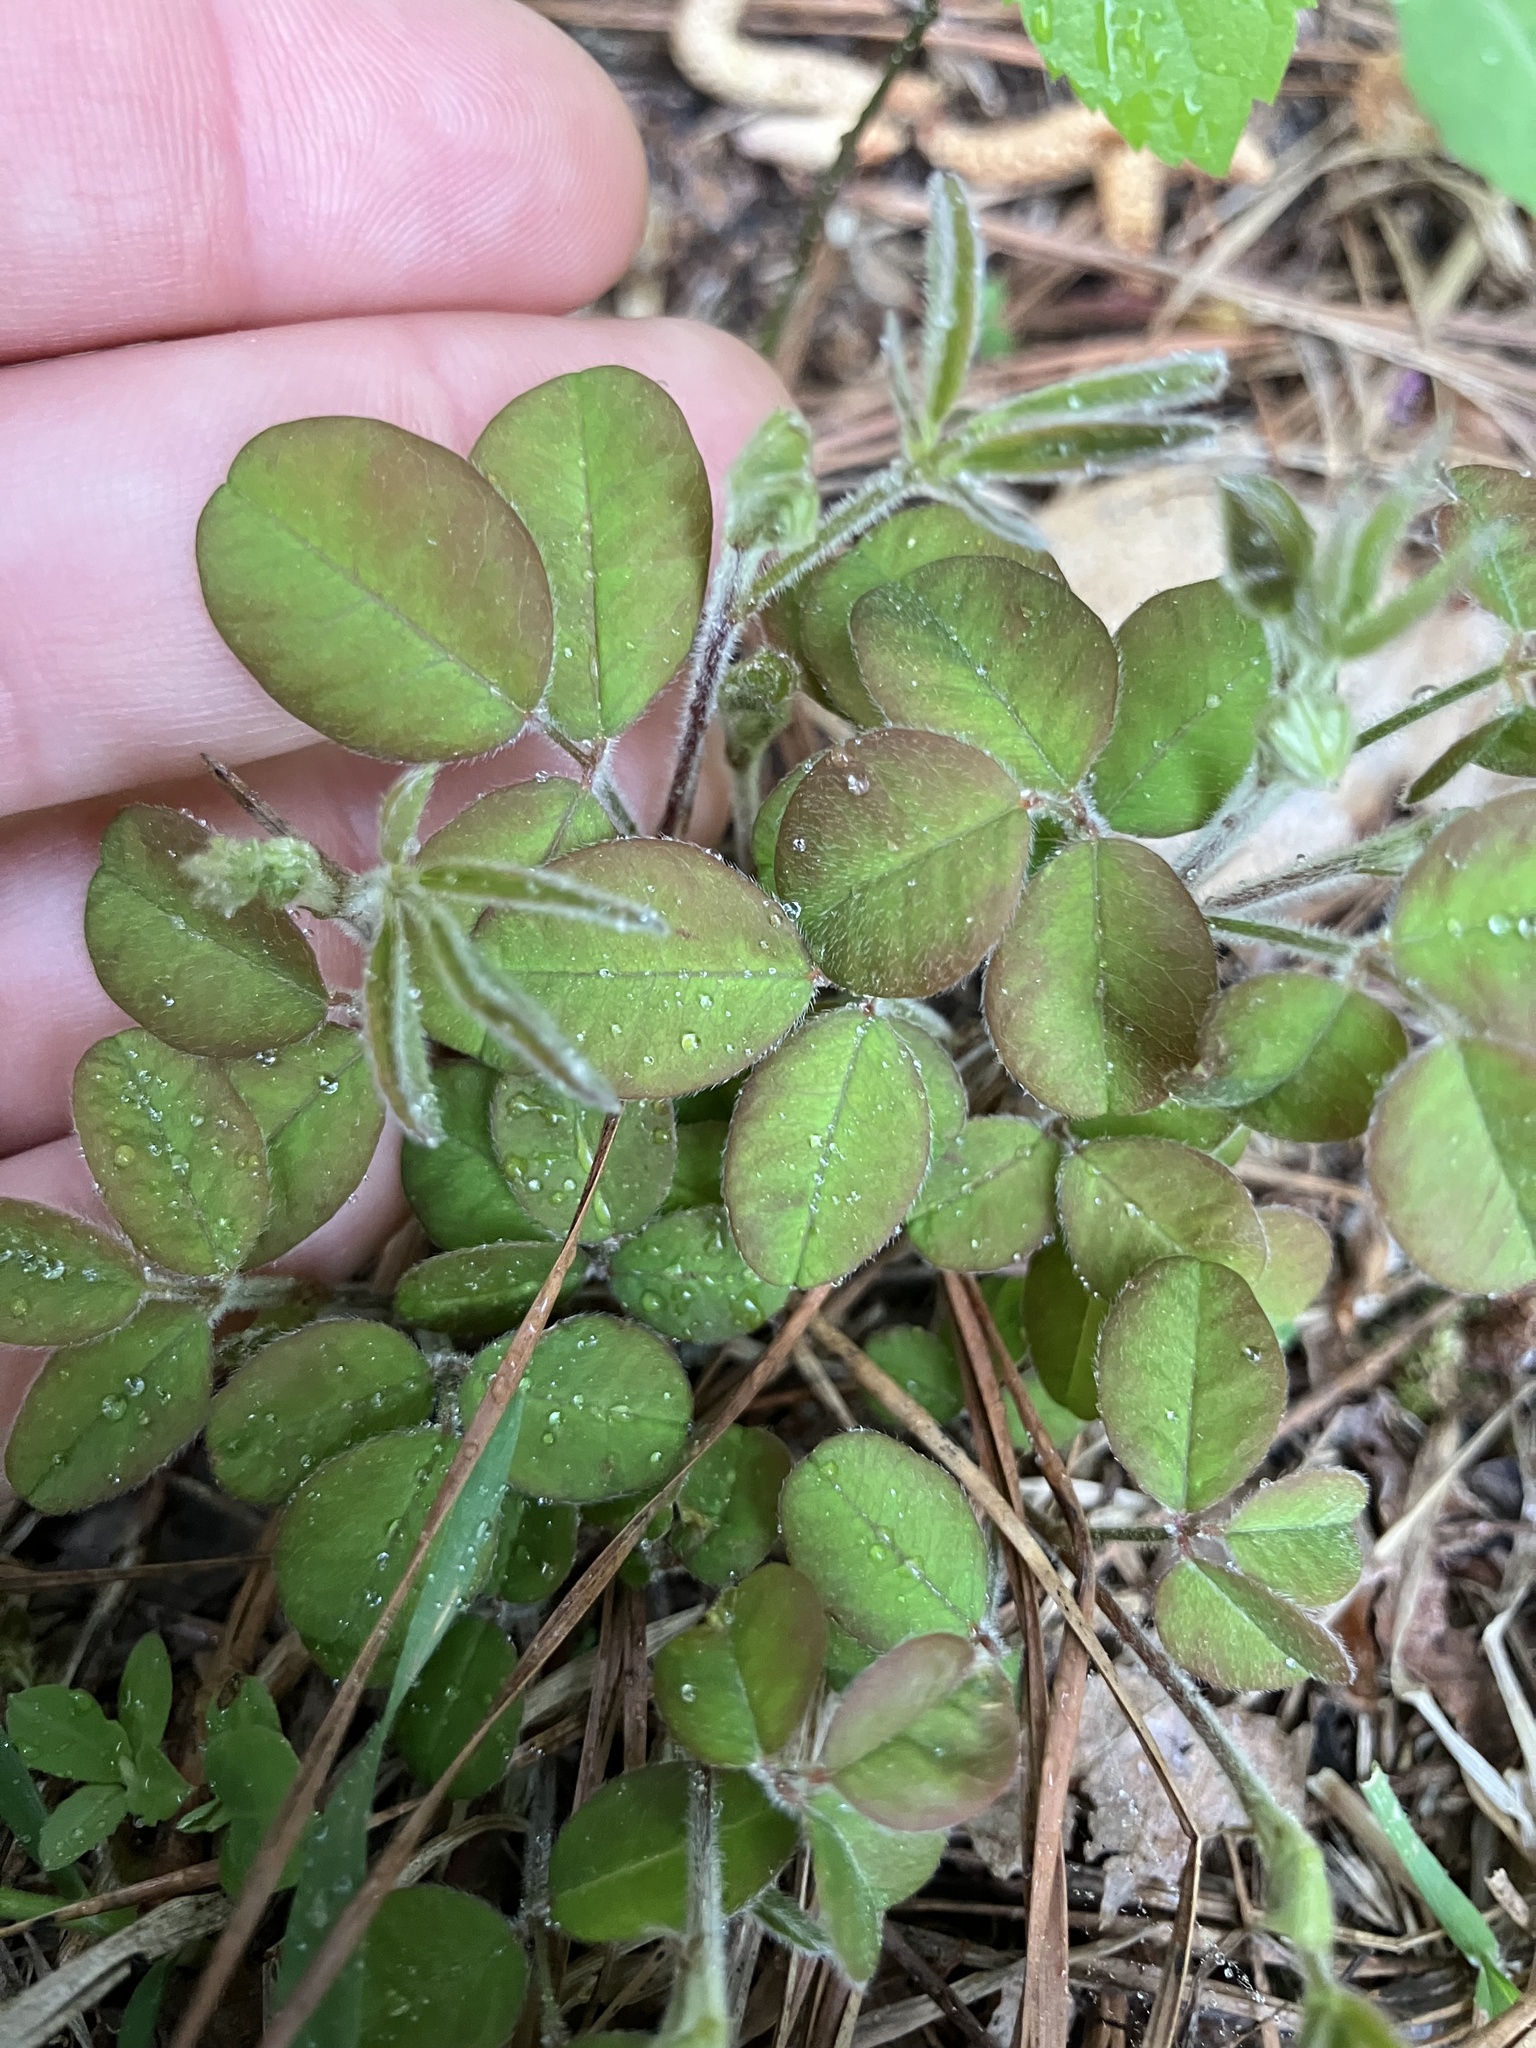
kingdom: Plantae
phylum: Tracheophyta
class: Magnoliopsida
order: Fabales
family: Fabaceae
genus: Lespedeza
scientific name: Lespedeza procumbens
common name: Downy trailing bush-clover
